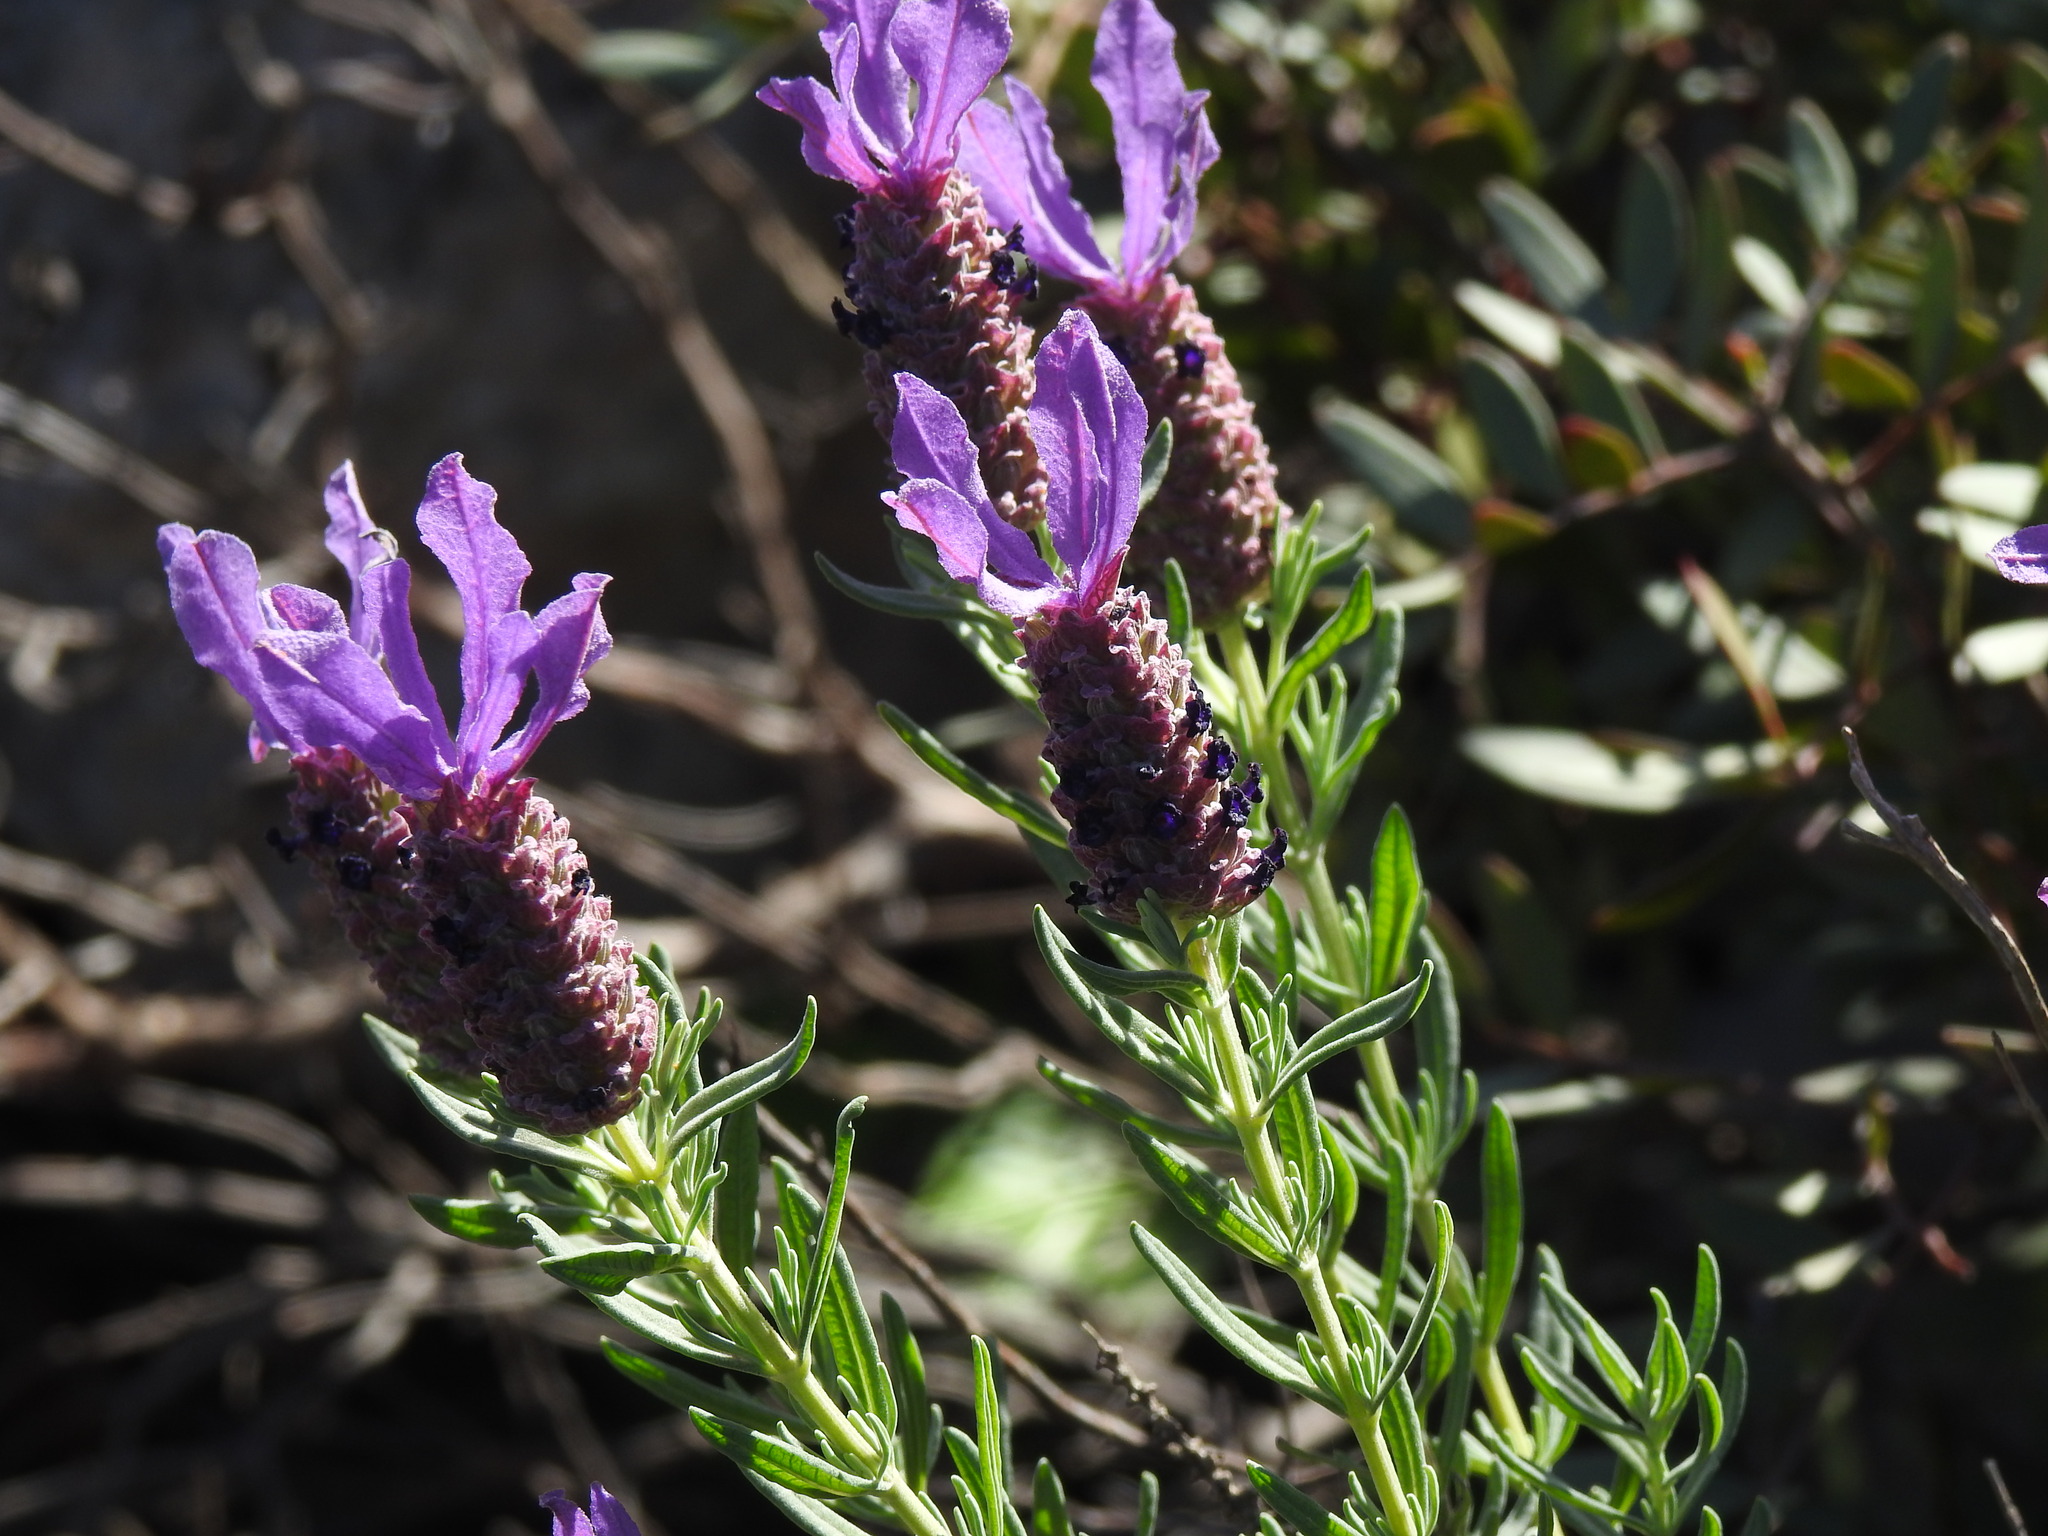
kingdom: Plantae
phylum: Tracheophyta
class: Magnoliopsida
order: Lamiales
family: Lamiaceae
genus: Lavandula
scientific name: Lavandula stoechas
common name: French lavender
